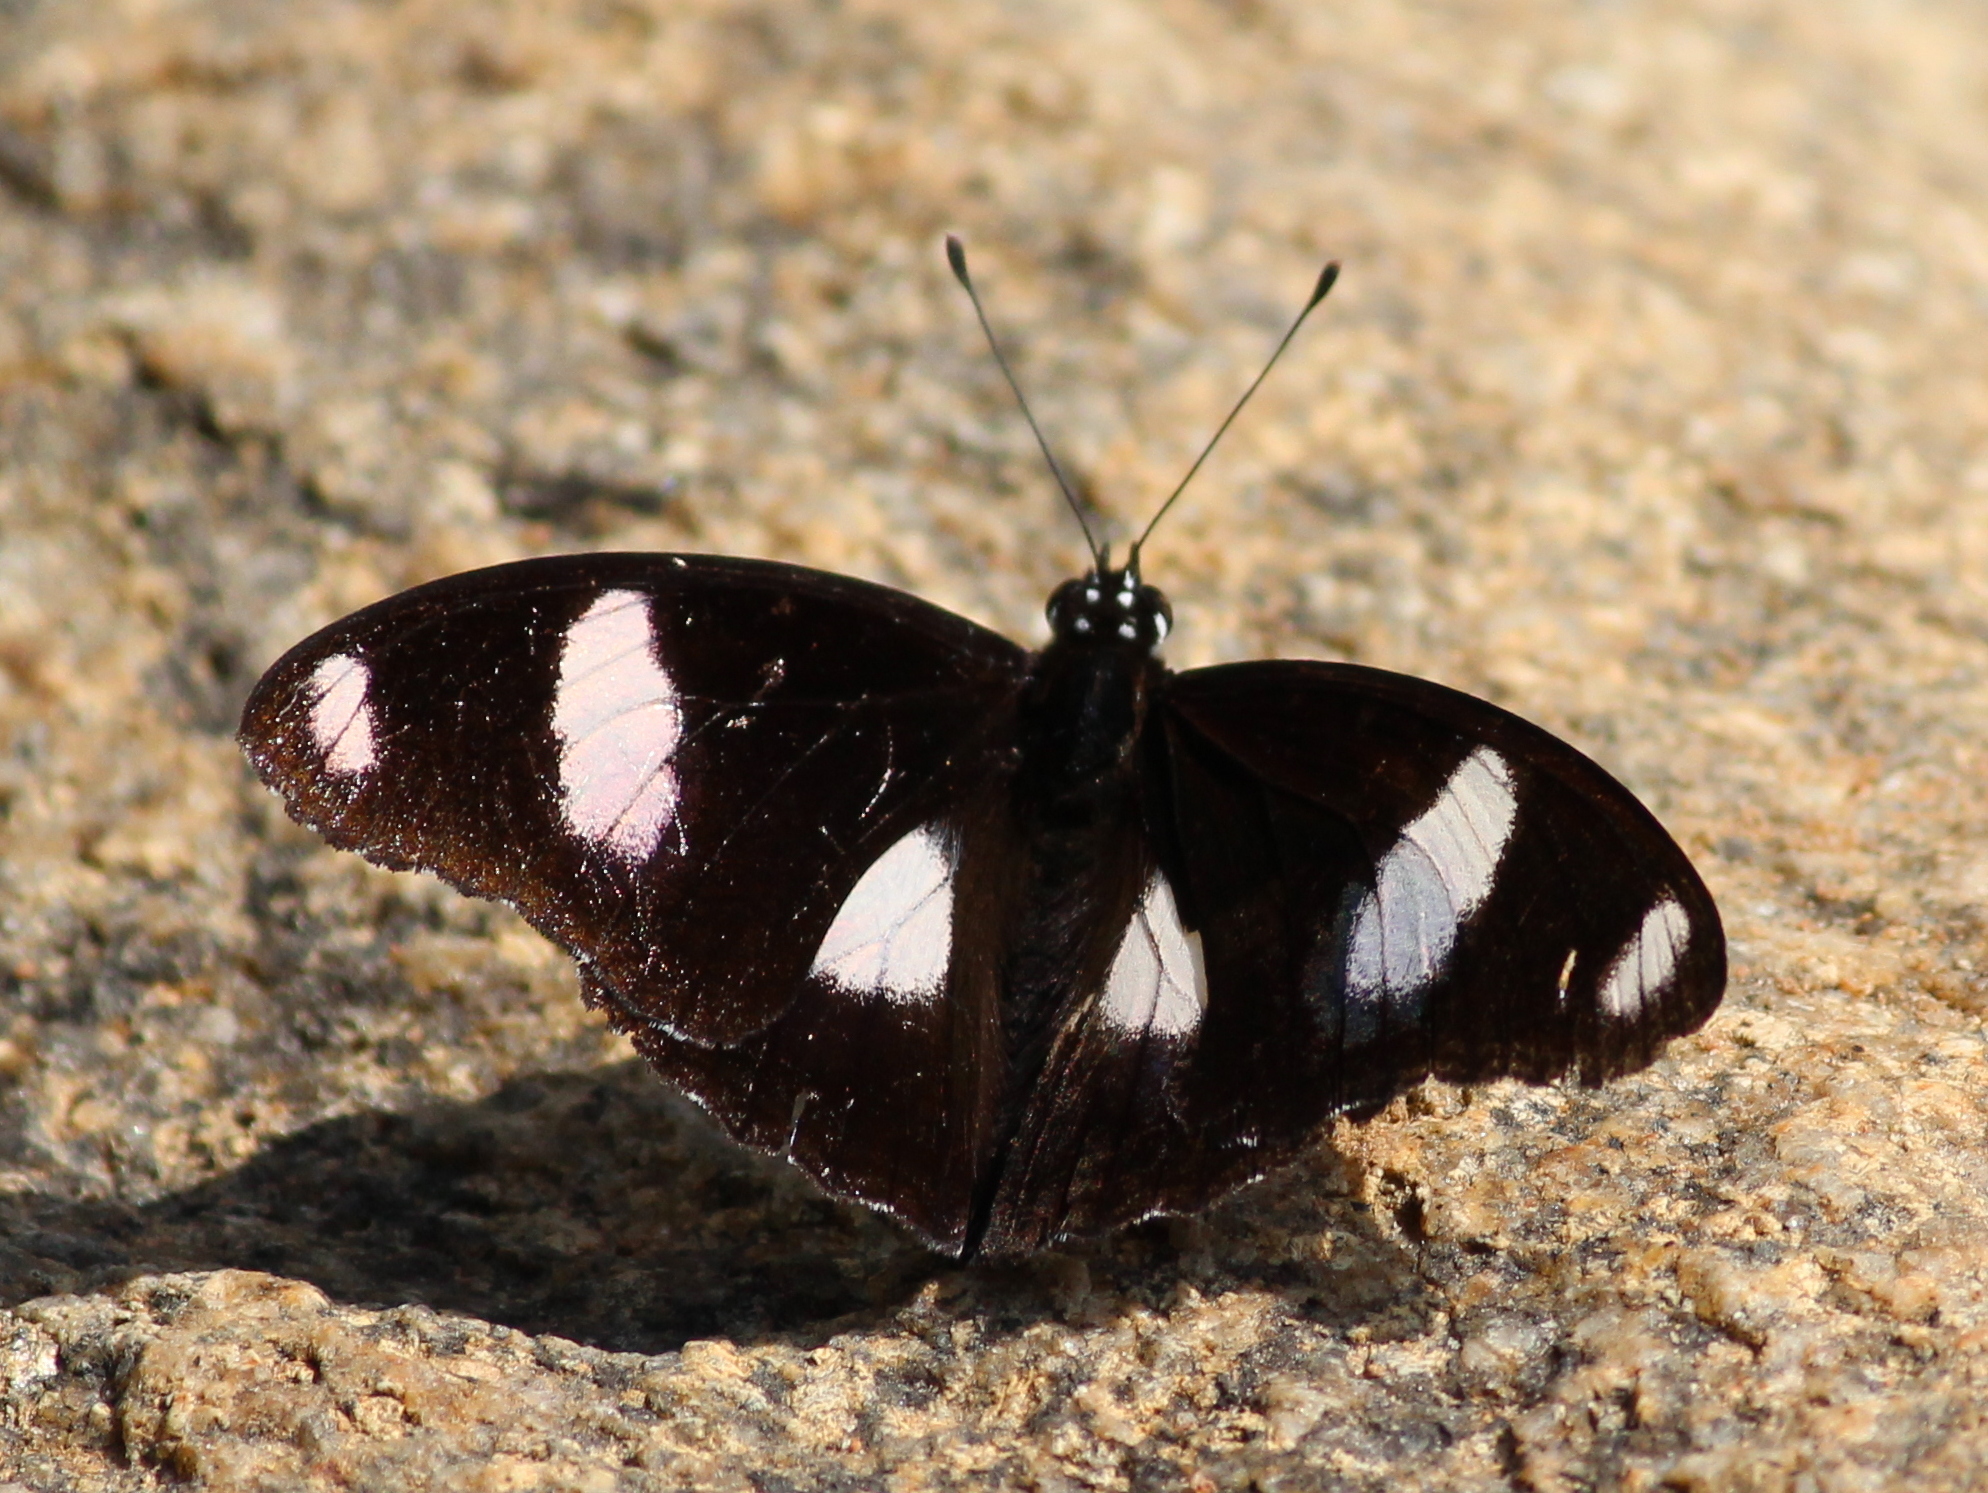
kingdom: Animalia
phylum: Arthropoda
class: Insecta
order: Lepidoptera
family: Nymphalidae
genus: Hypolimnas
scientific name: Hypolimnas misippus
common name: False plain tiger
